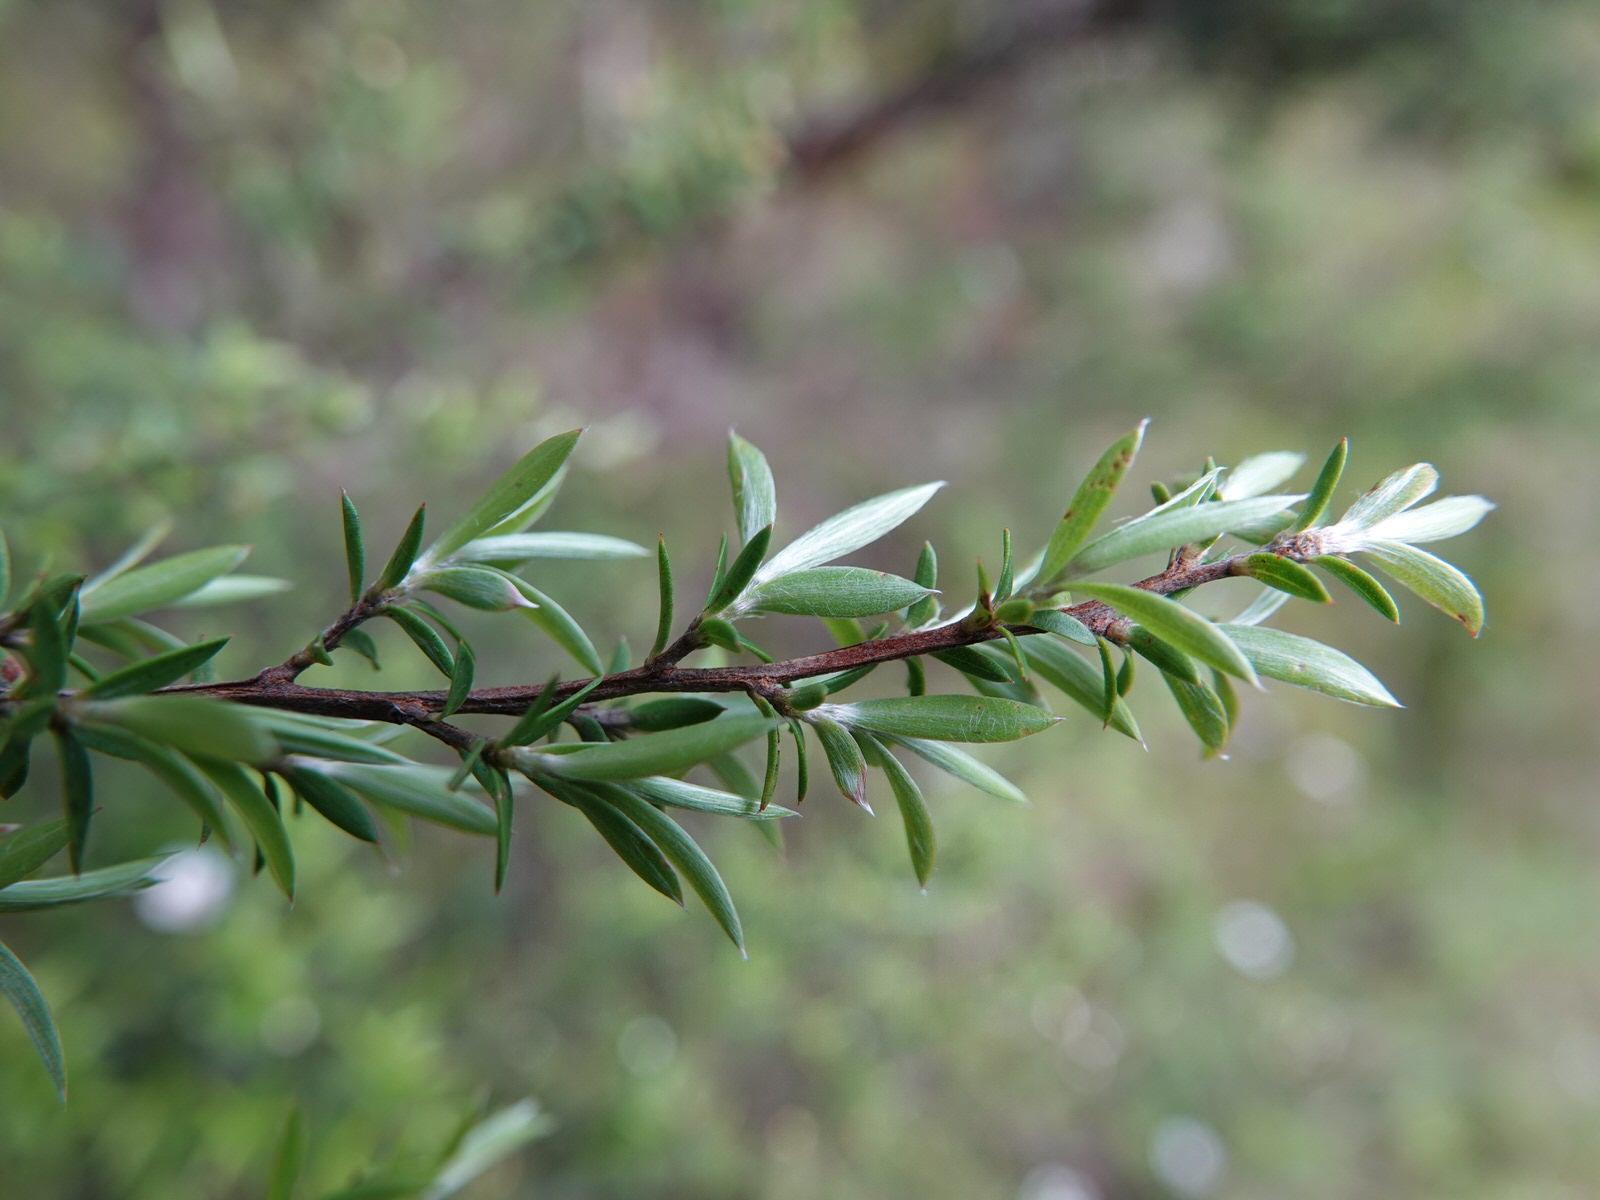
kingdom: Plantae
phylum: Tracheophyta
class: Magnoliopsida
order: Myrtales
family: Myrtaceae
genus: Leptospermum
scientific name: Leptospermum scoparium
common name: Broom tea-tree
